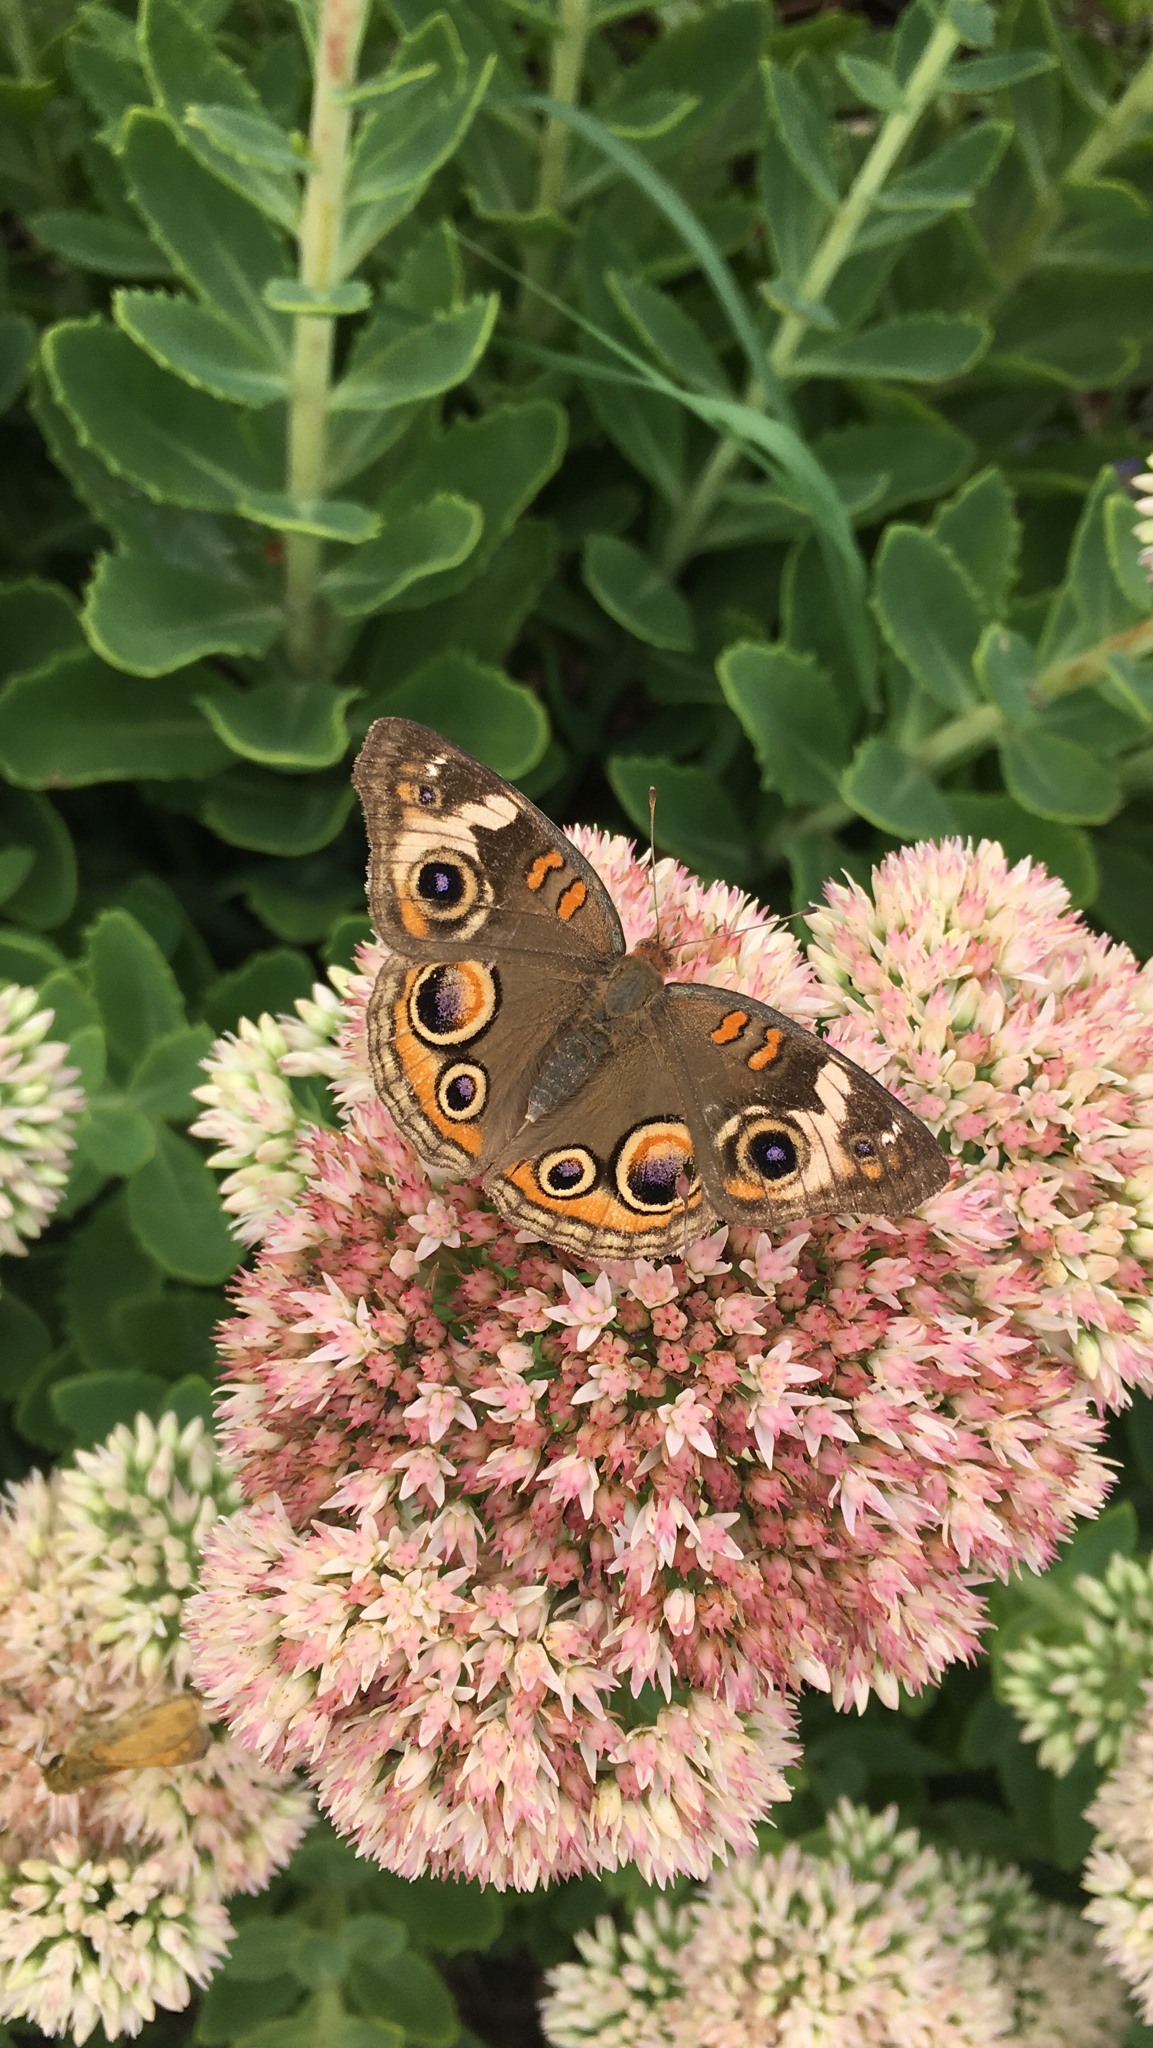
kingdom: Animalia
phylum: Arthropoda
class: Insecta
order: Lepidoptera
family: Nymphalidae
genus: Junonia
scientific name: Junonia coenia
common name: Common buckeye
